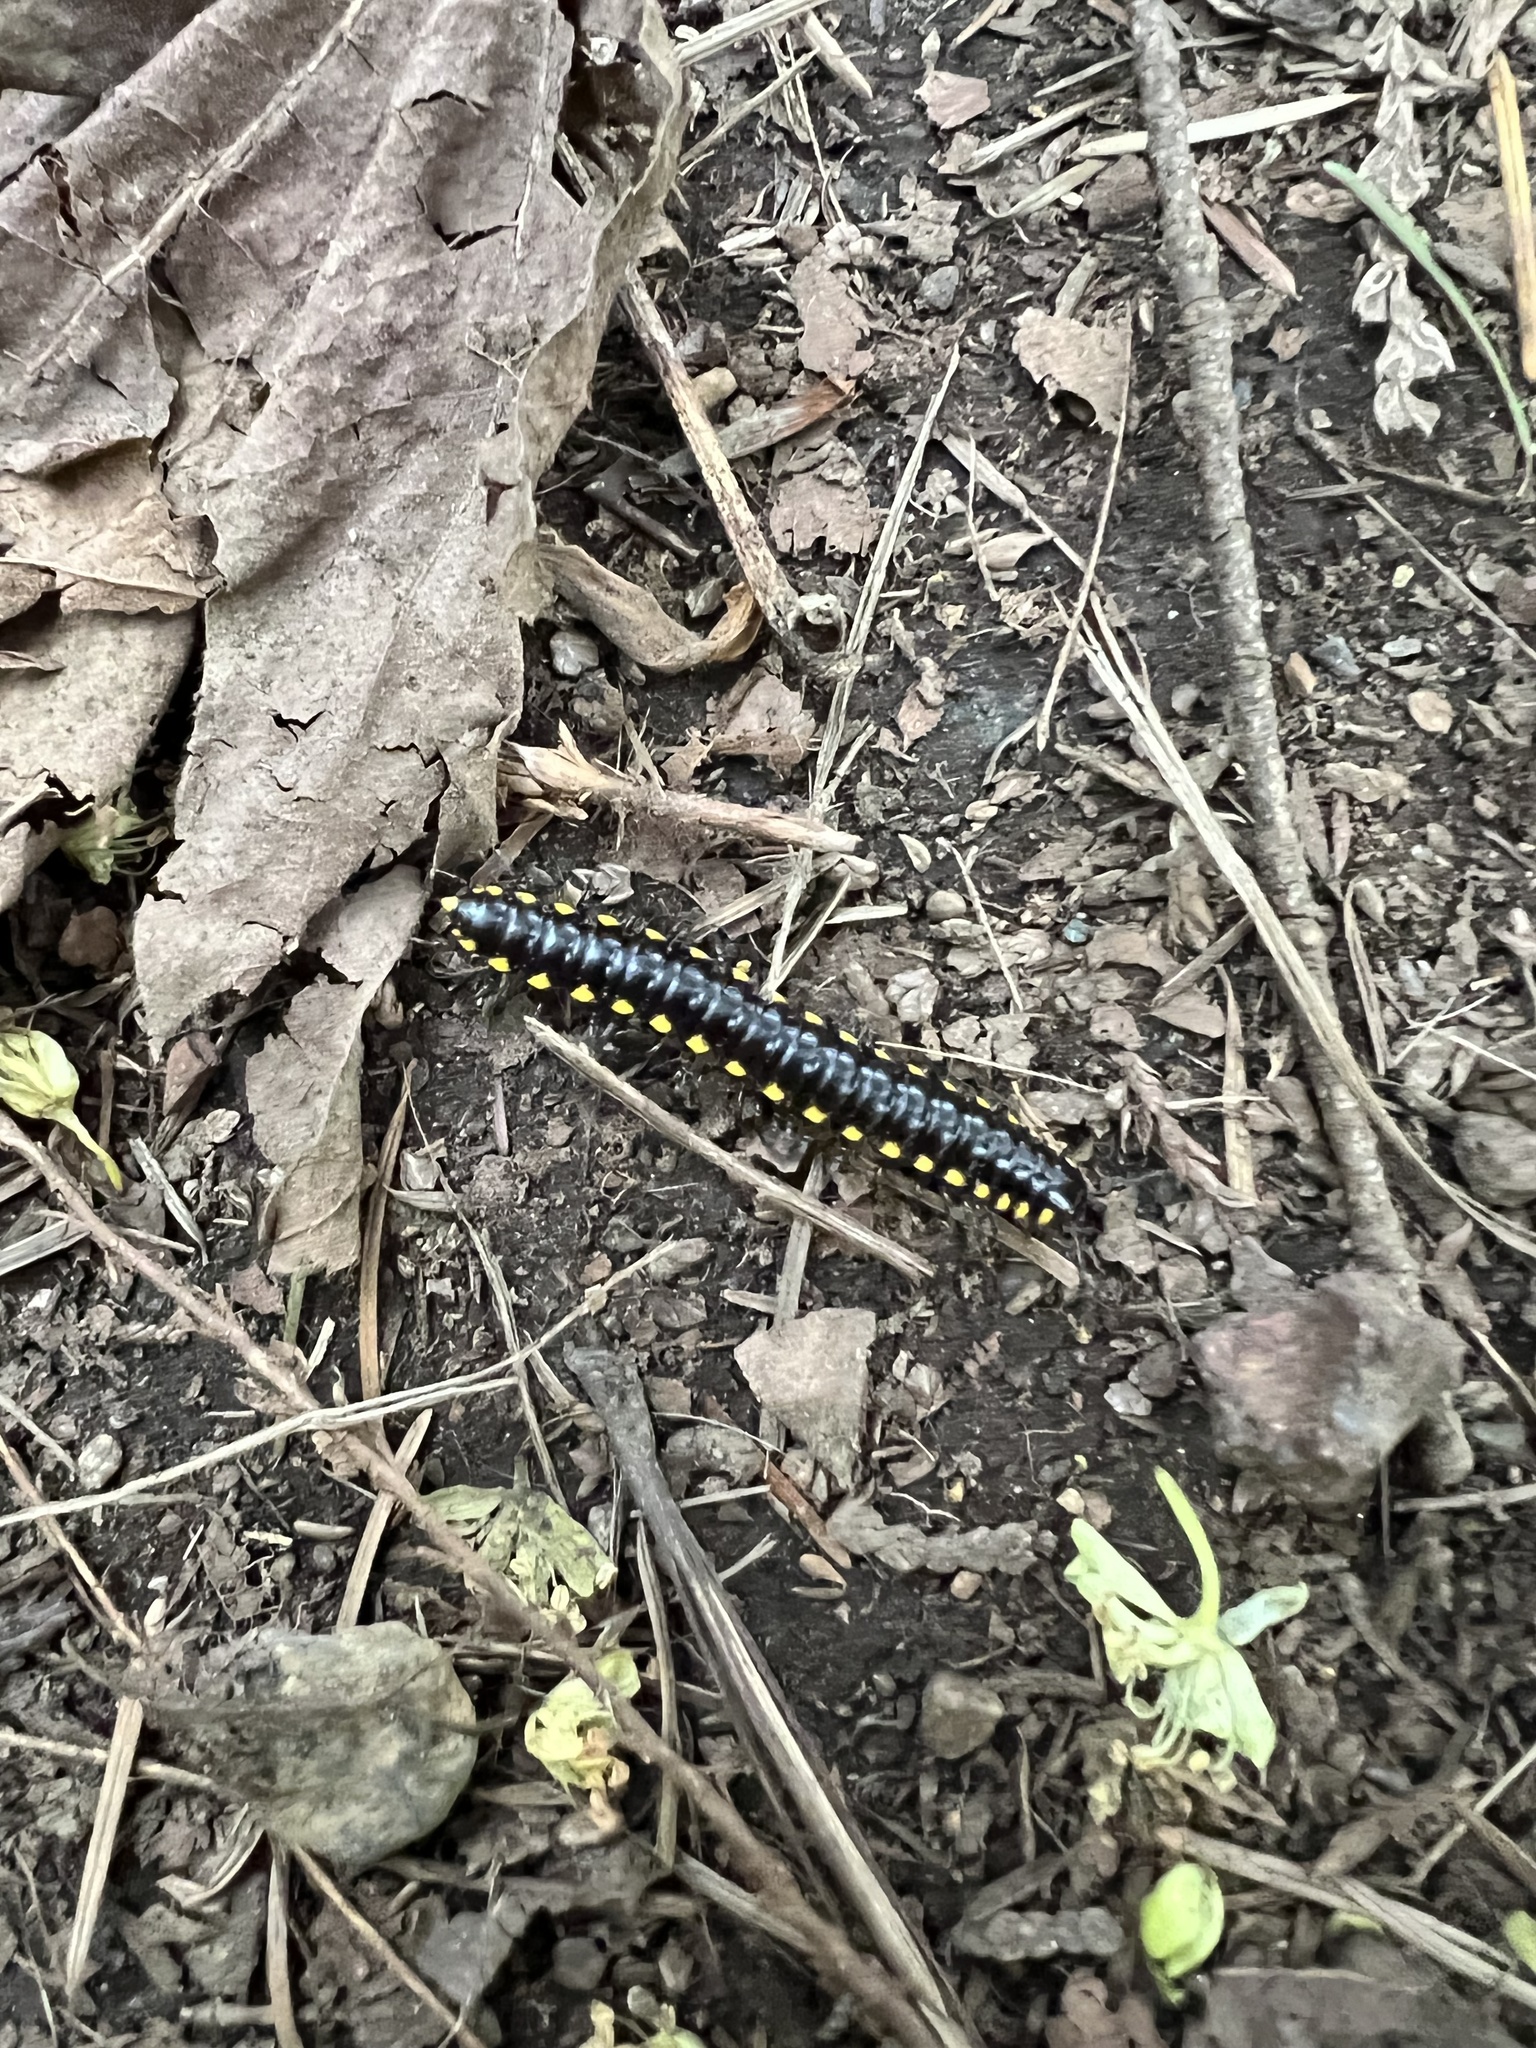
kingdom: Animalia
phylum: Arthropoda
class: Diplopoda
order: Polydesmida
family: Xystodesmidae
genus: Harpaphe
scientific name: Harpaphe haydeniana
